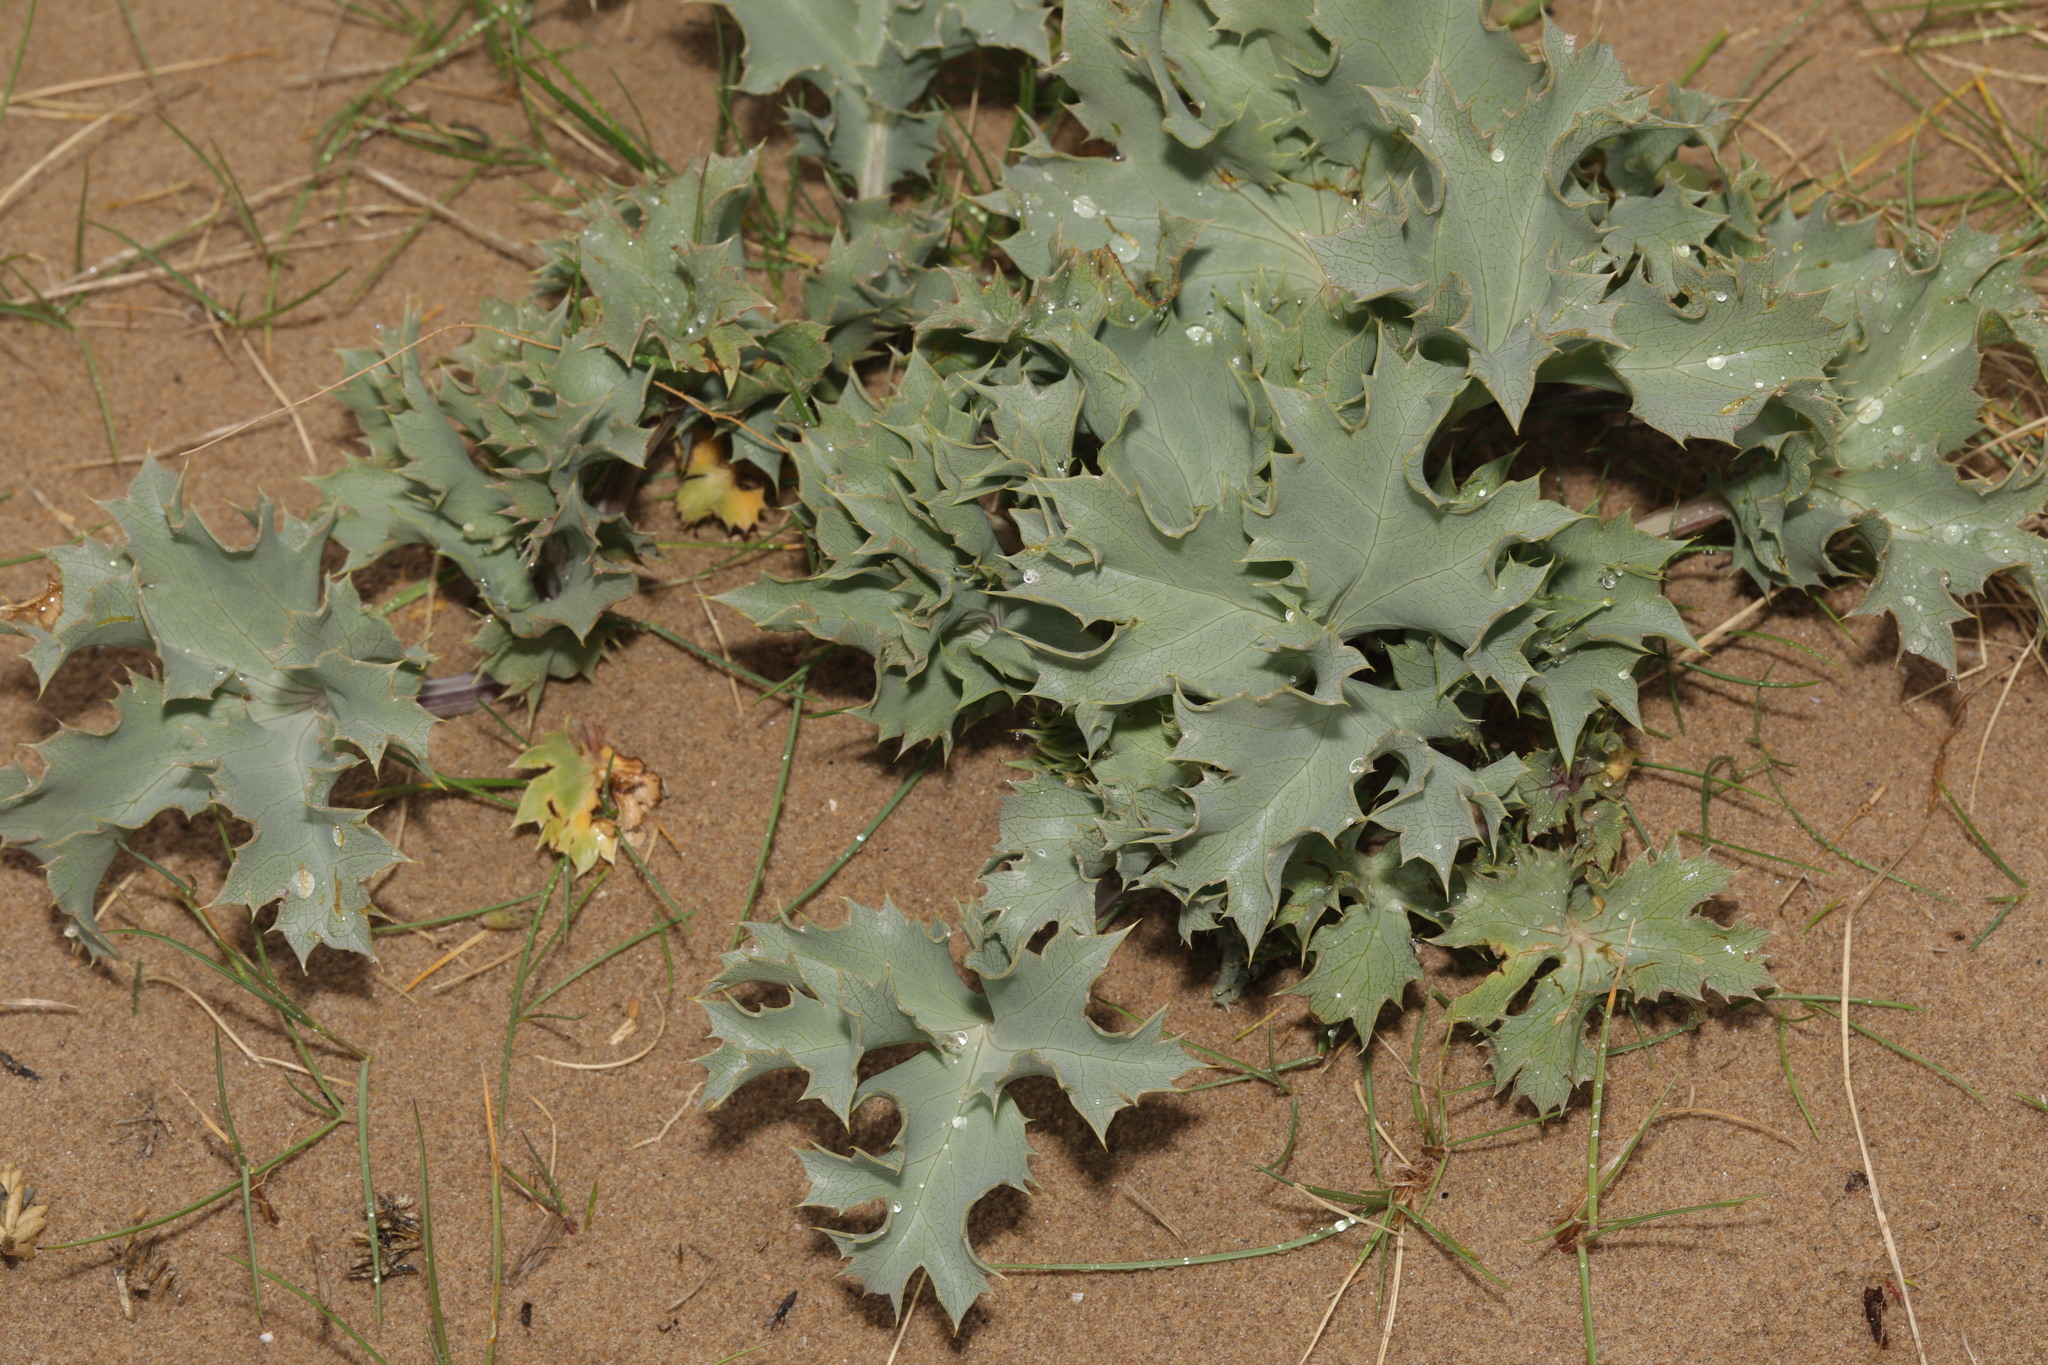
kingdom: Plantae
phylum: Tracheophyta
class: Magnoliopsida
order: Apiales
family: Apiaceae
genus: Eryngium
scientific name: Eryngium maritimum
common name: Sea-holly
